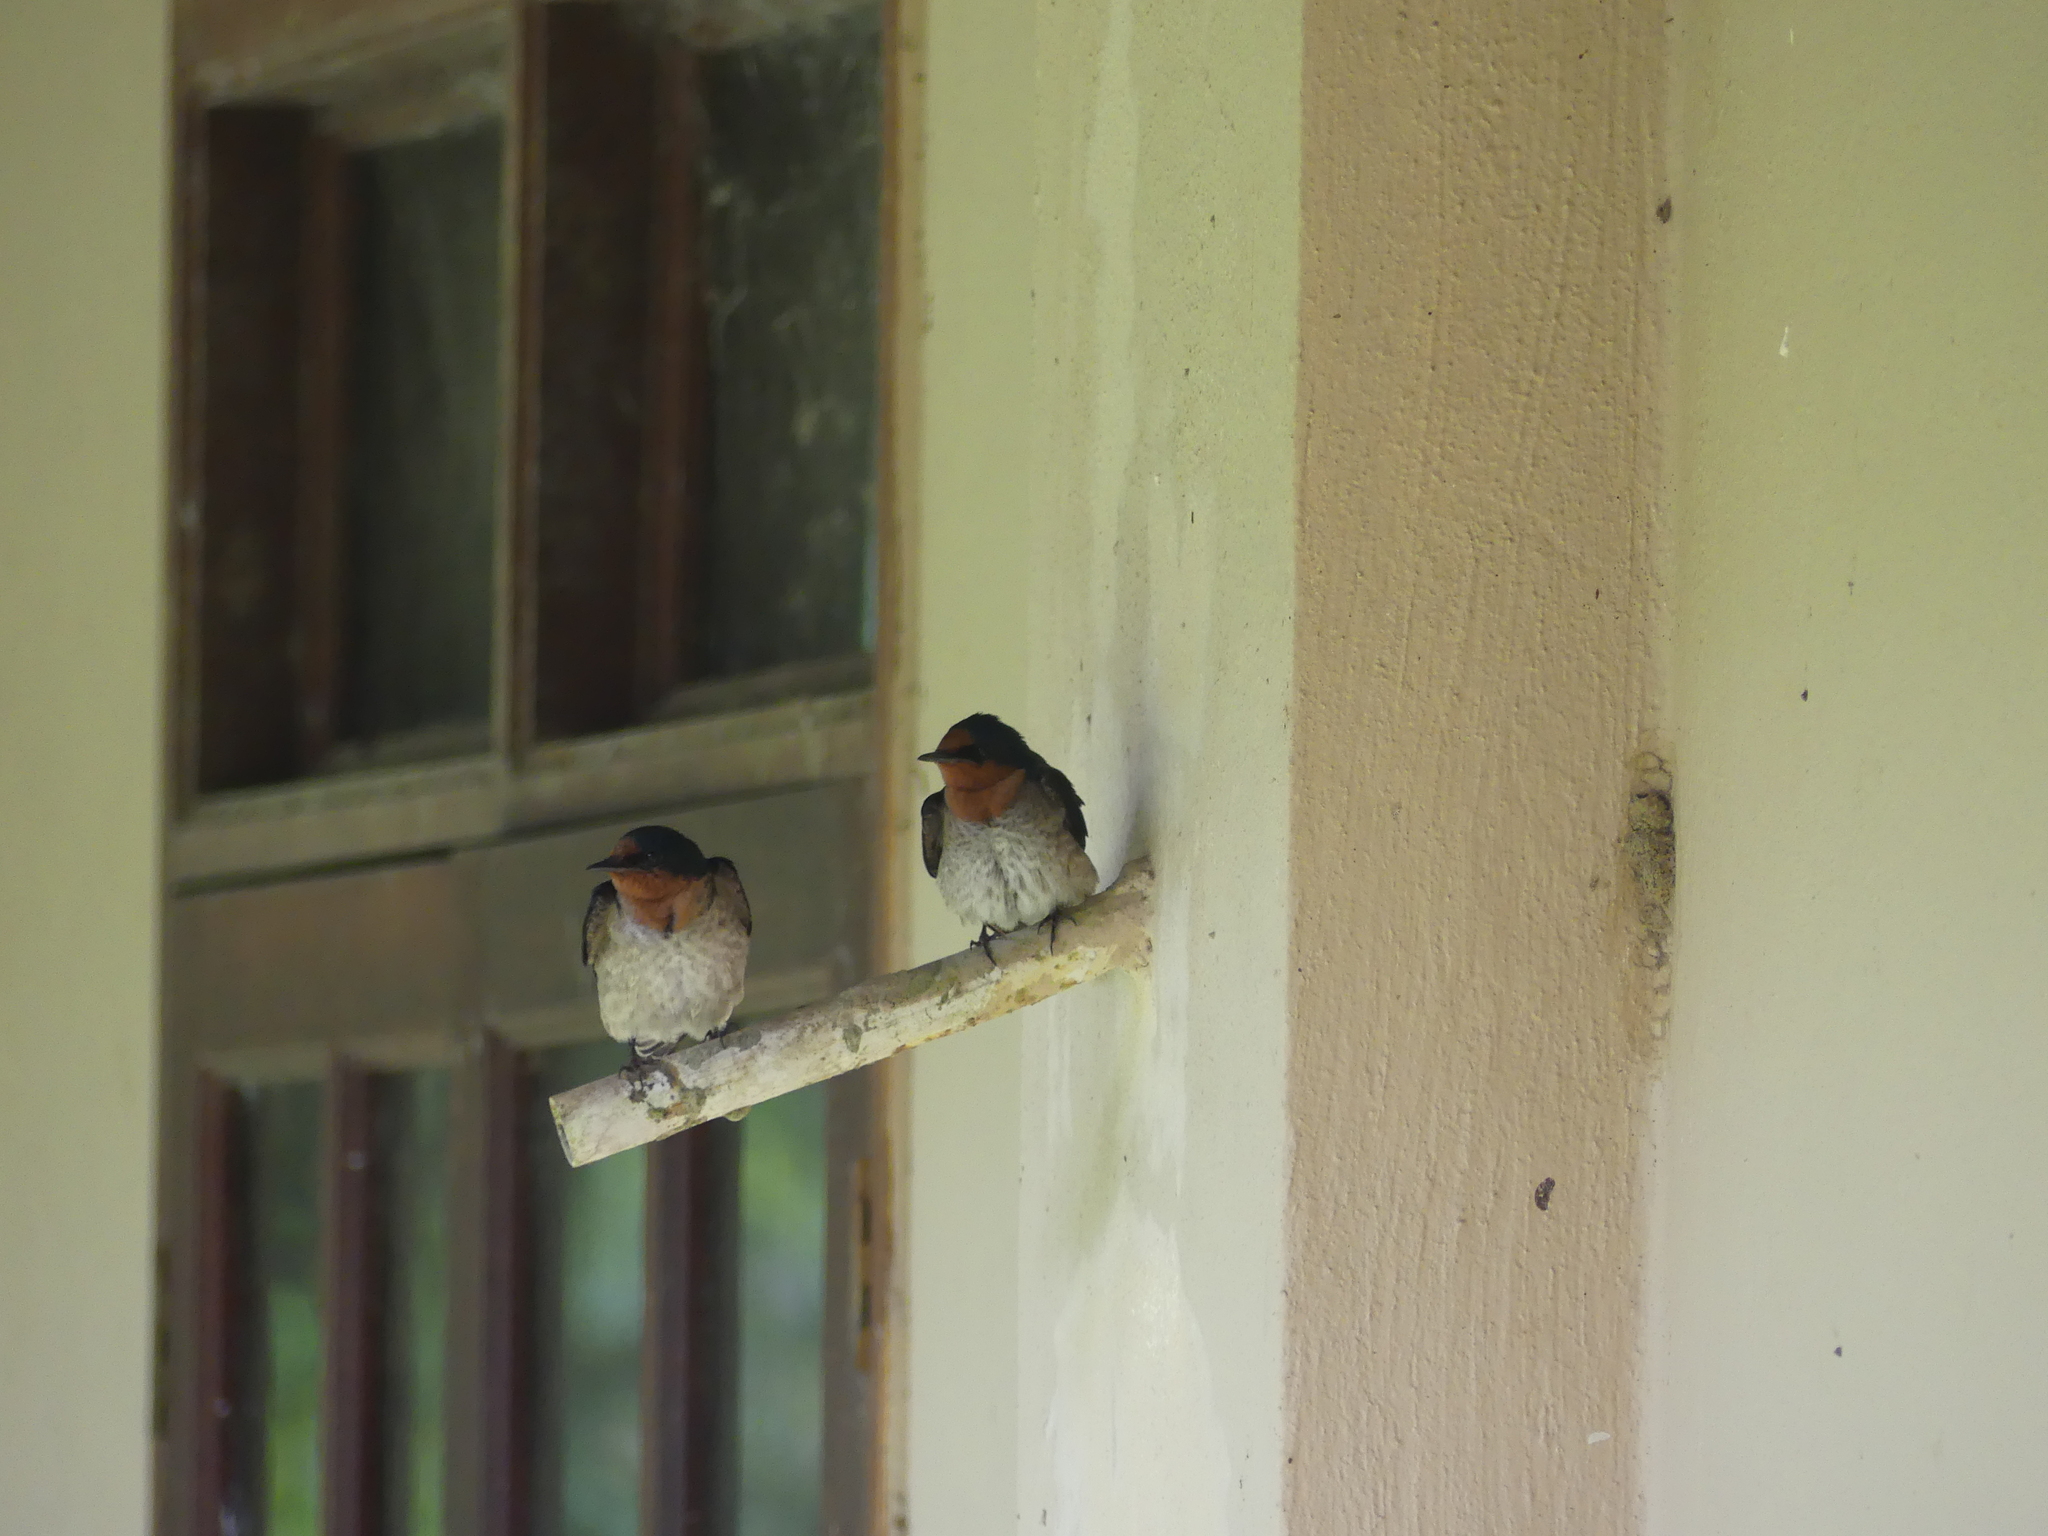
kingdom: Animalia
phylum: Chordata
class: Aves
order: Passeriformes
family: Hirundinidae
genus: Hirundo
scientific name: Hirundo tahitica
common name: Pacific swallow
